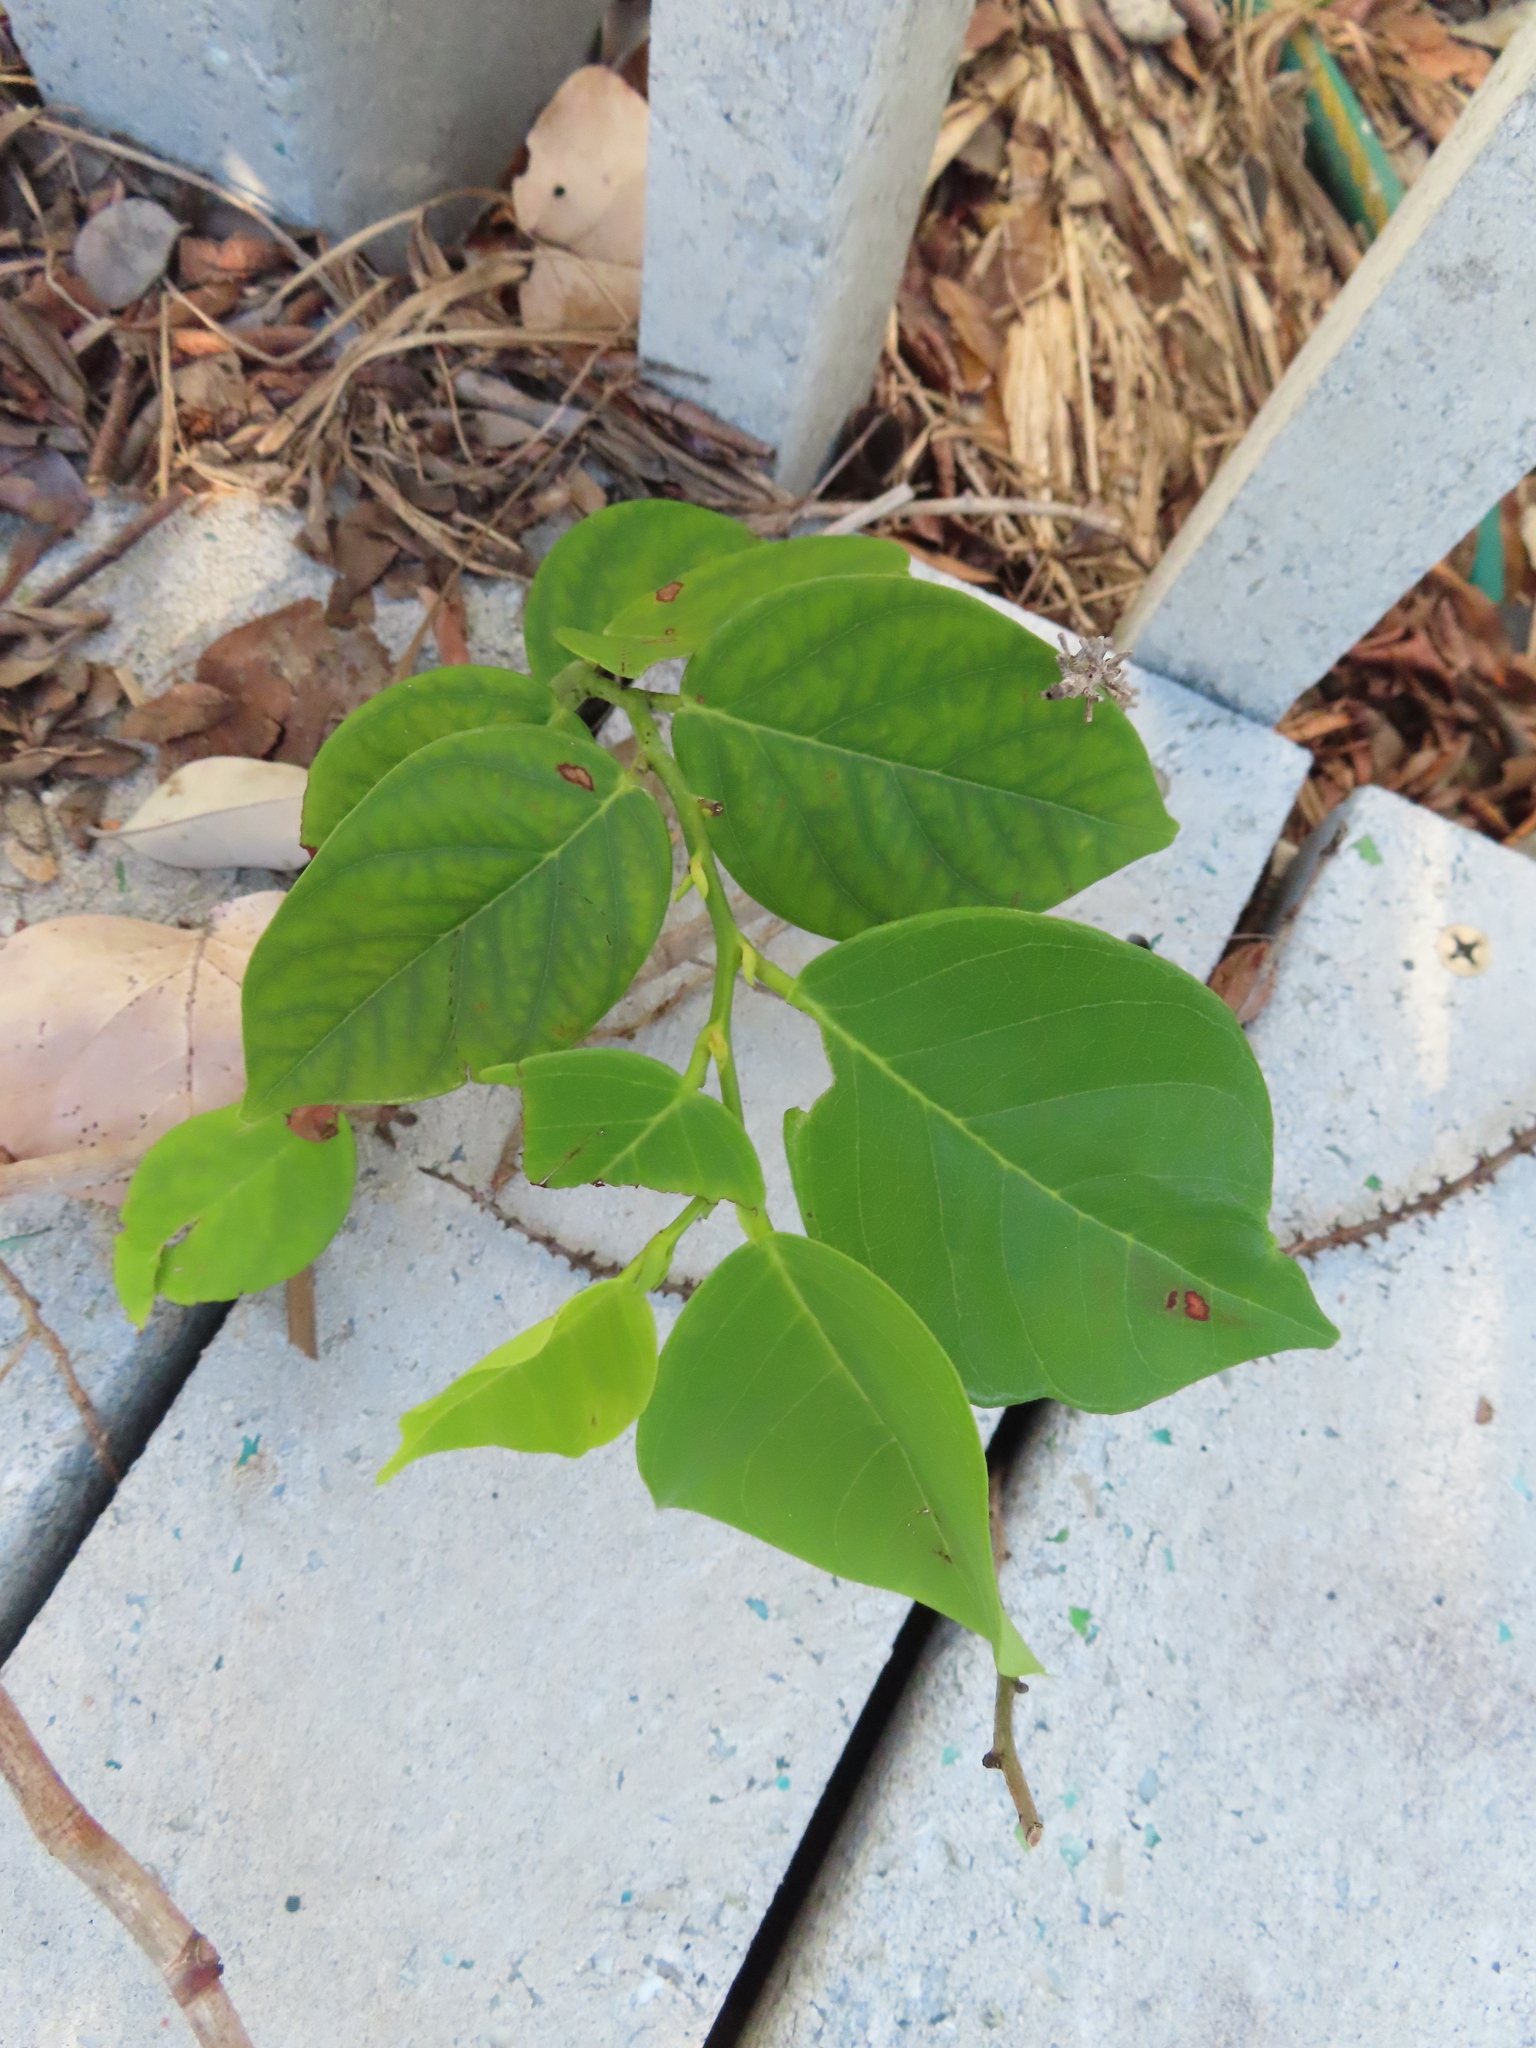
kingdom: Plantae
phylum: Tracheophyta
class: Magnoliopsida
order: Fabales
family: Fabaceae
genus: Dalbergia
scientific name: Dalbergia ecastaphyllum
